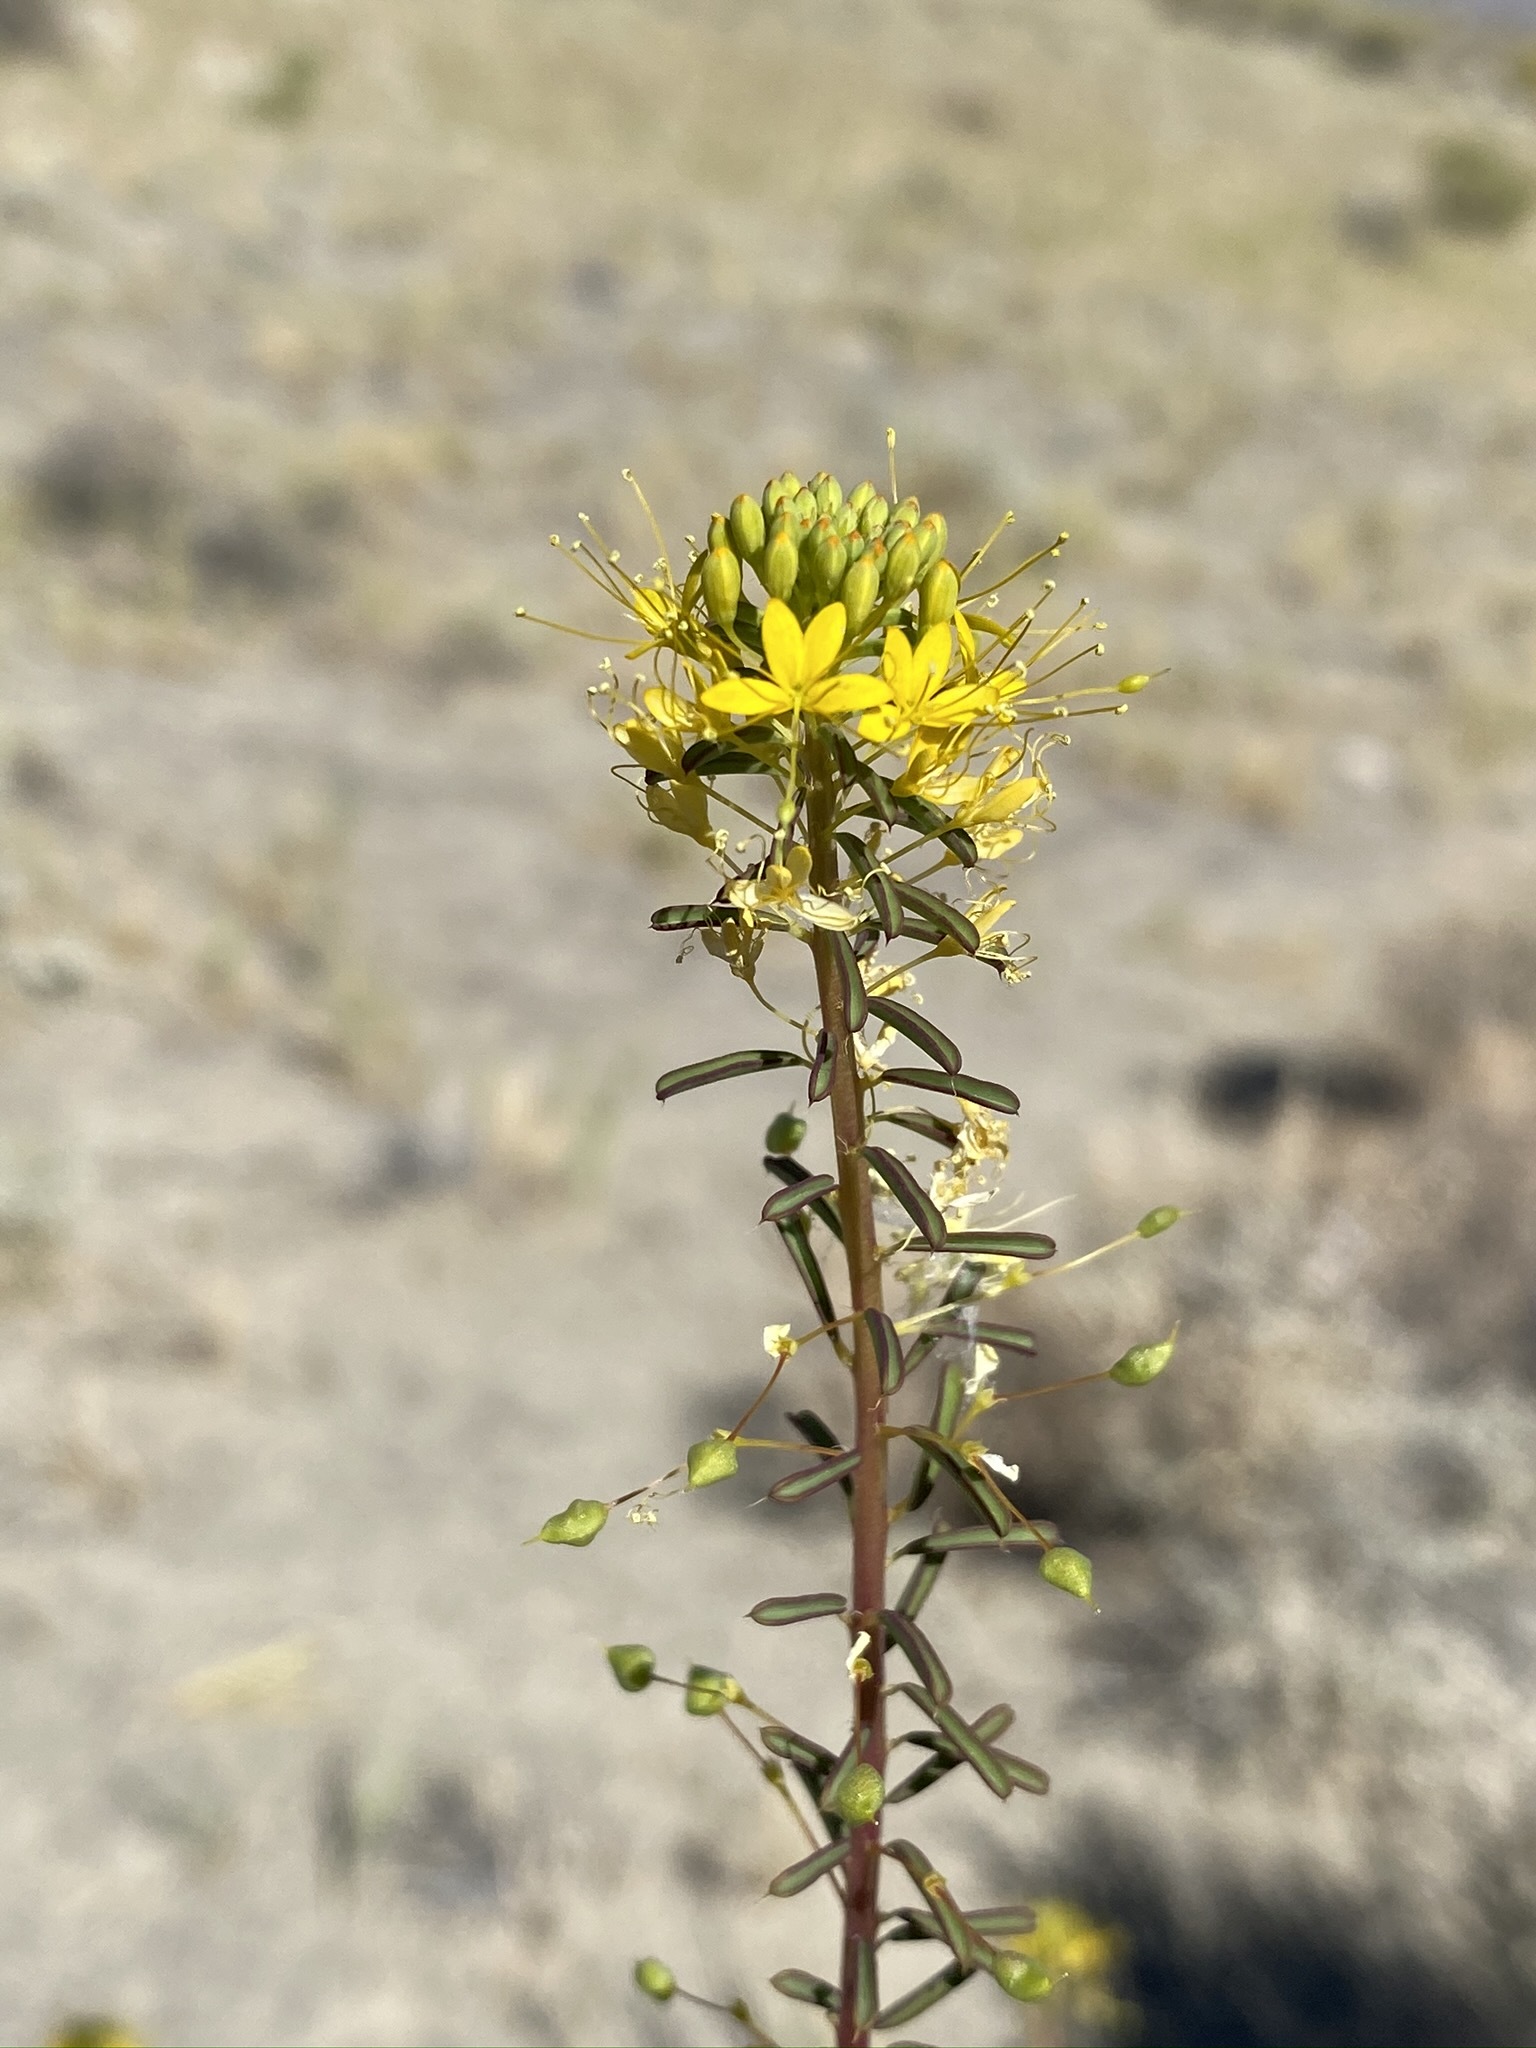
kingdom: Plantae
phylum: Tracheophyta
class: Magnoliopsida
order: Brassicales
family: Cleomaceae
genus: Cleomella
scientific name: Cleomella plocasperma
